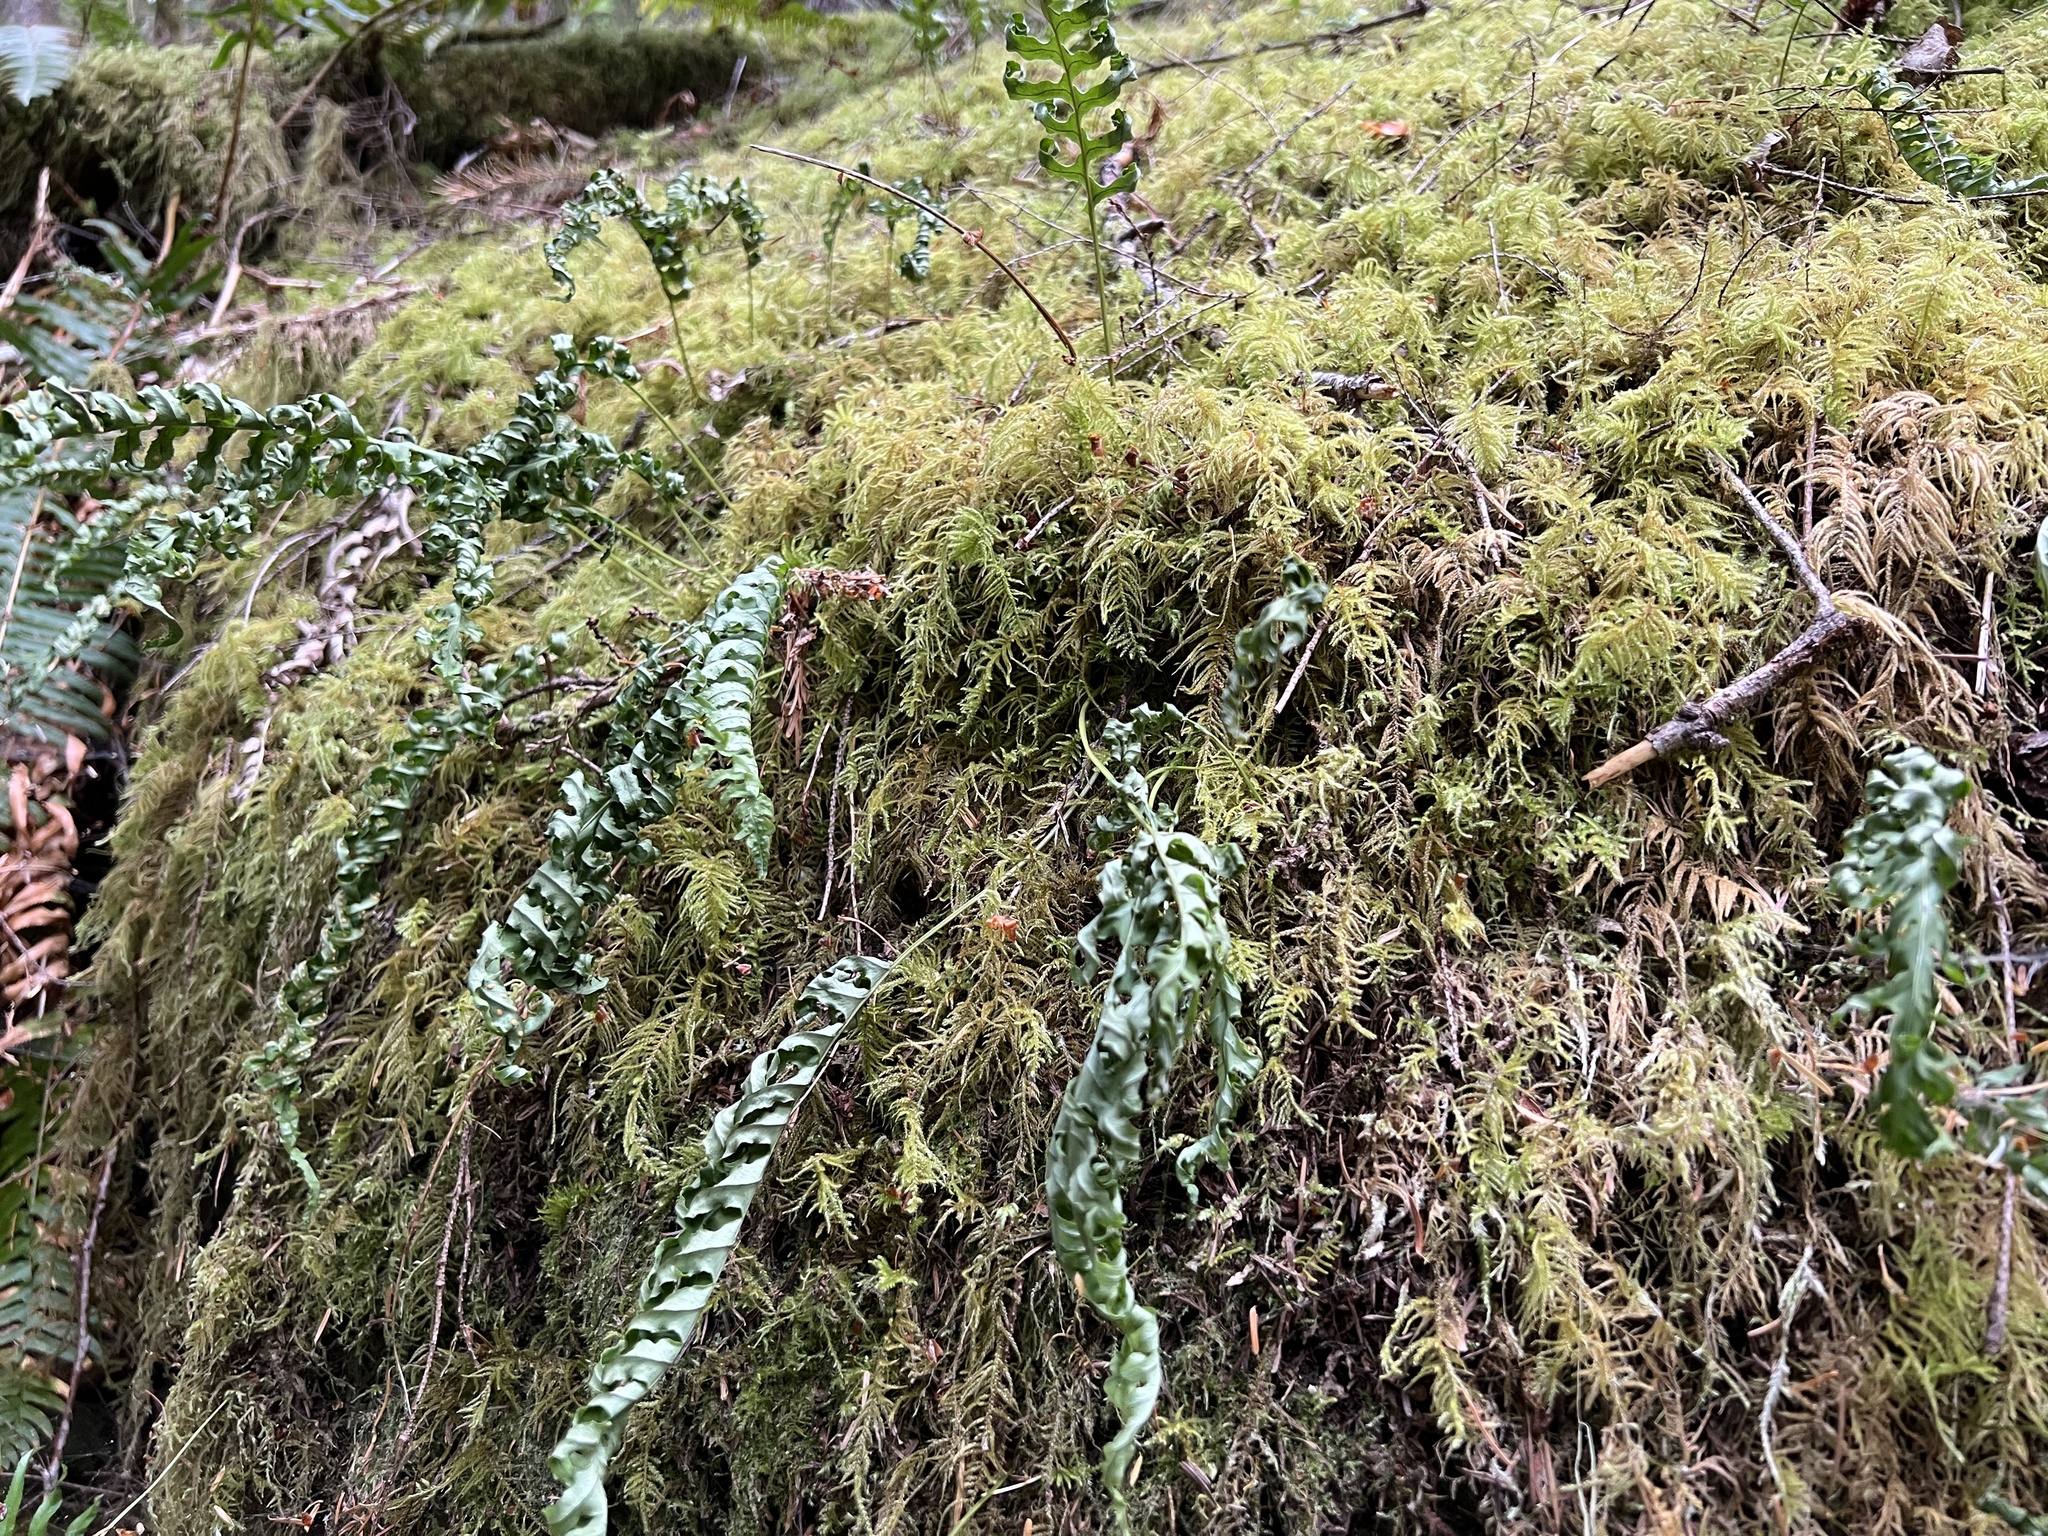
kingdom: Plantae
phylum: Tracheophyta
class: Polypodiopsida
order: Polypodiales
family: Polypodiaceae
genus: Polypodium
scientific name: Polypodium glycyrrhiza
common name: Licorice fern
